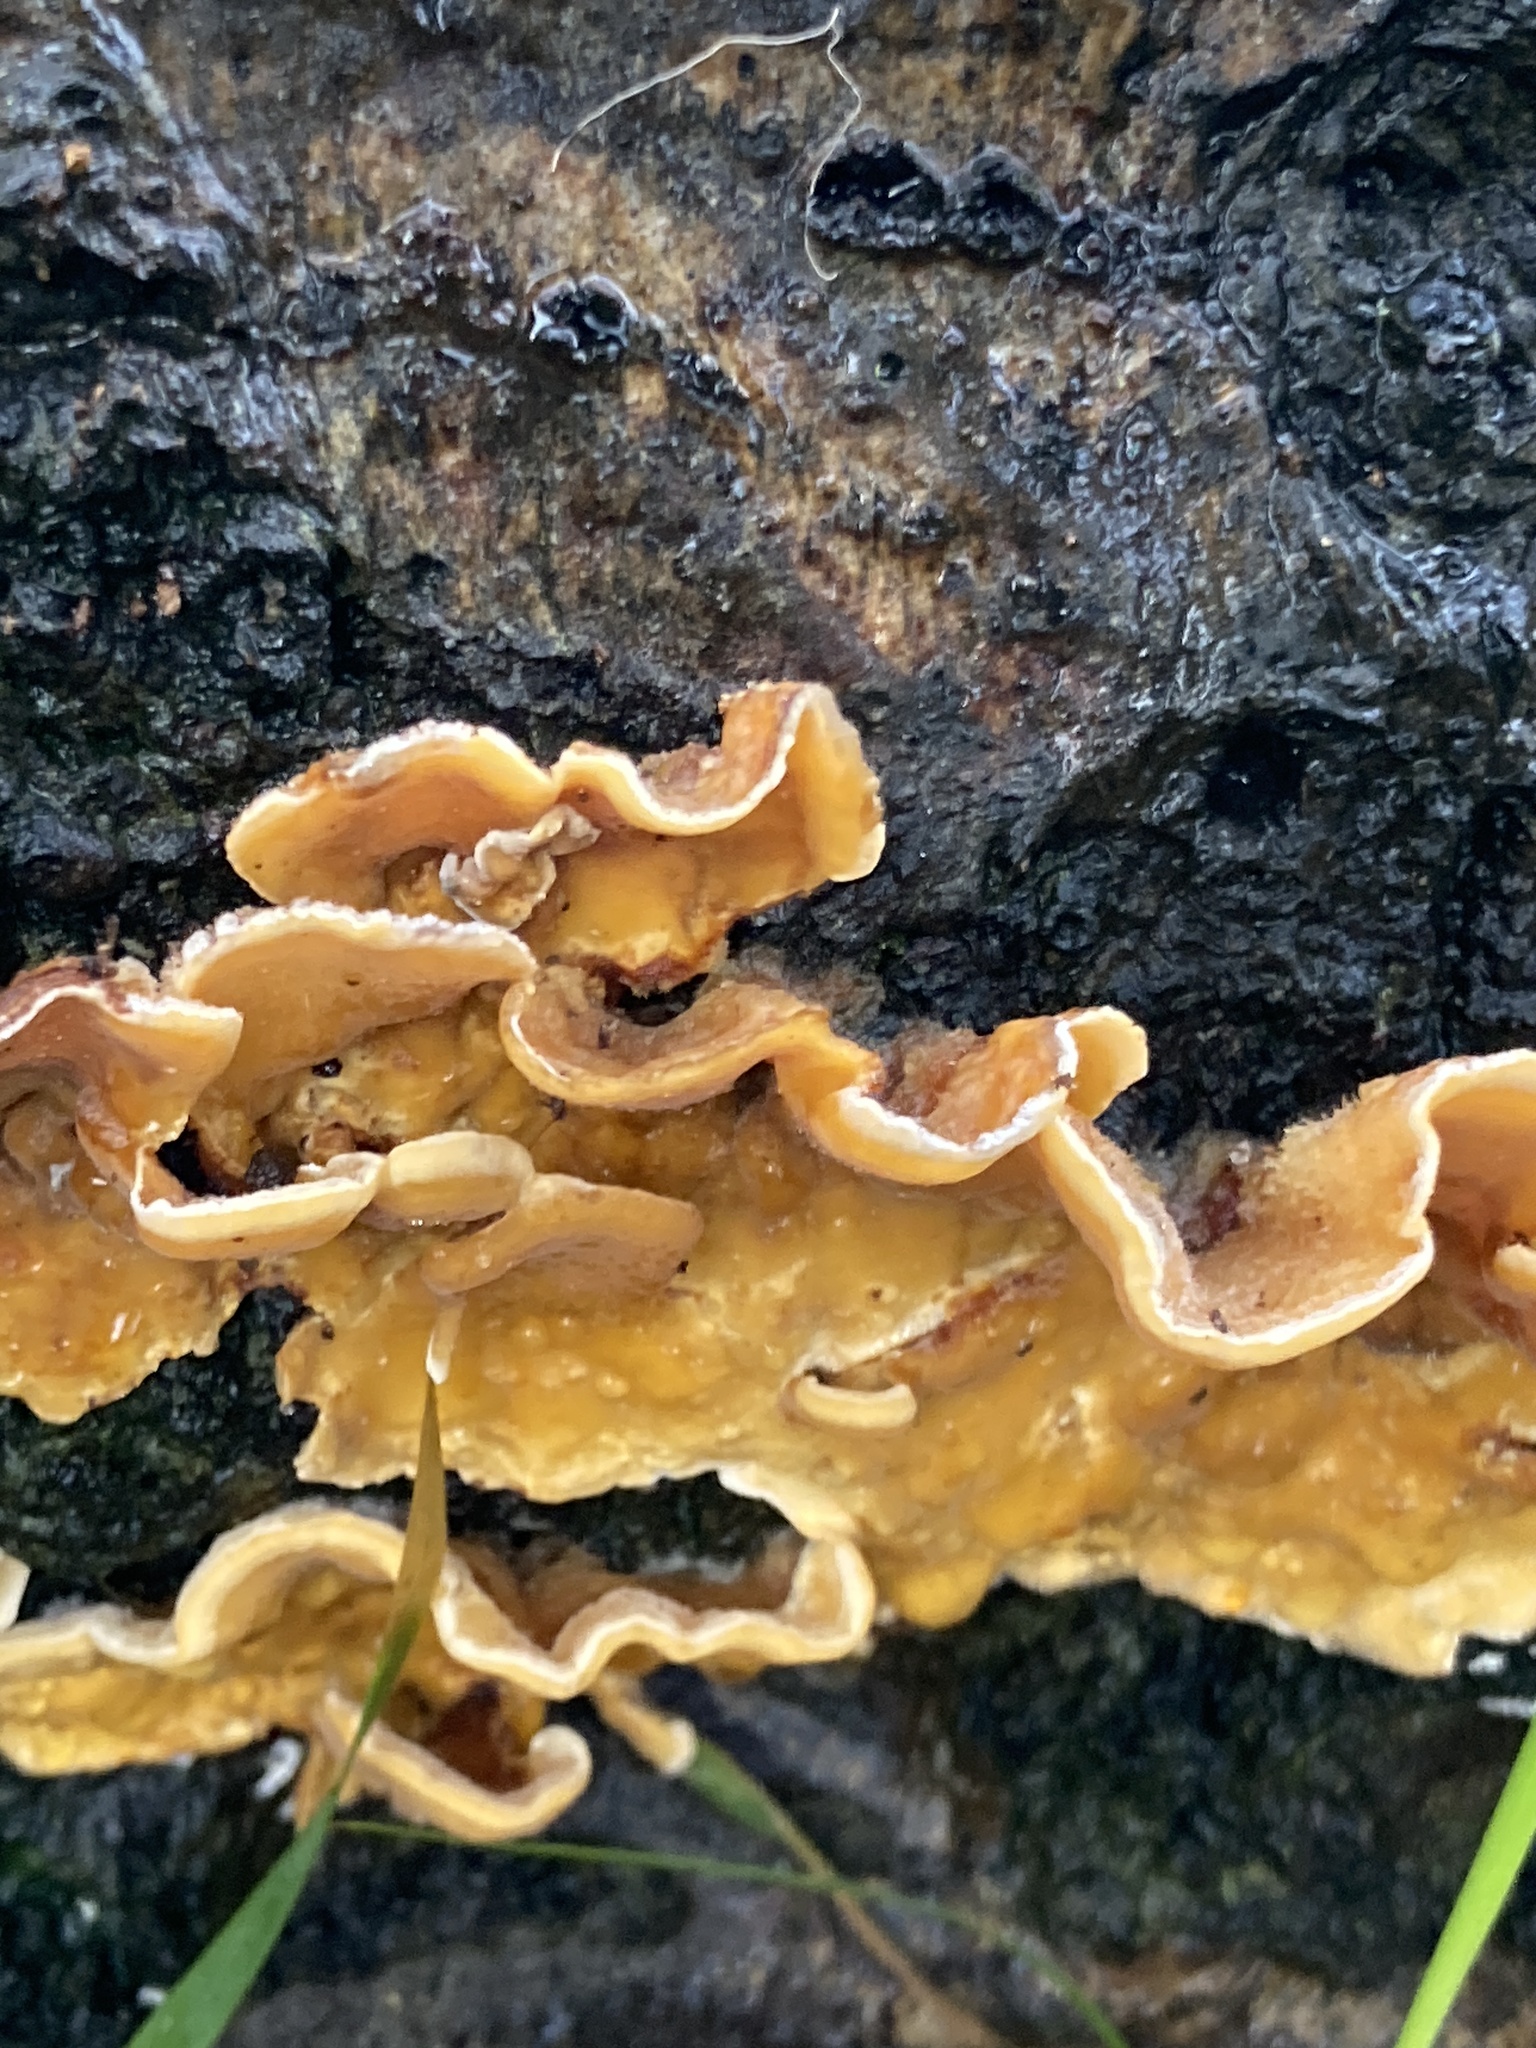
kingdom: Fungi
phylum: Basidiomycota
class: Agaricomycetes
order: Russulales
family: Stereaceae
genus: Stereum
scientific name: Stereum hirsutum
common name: Hairy curtain crust
